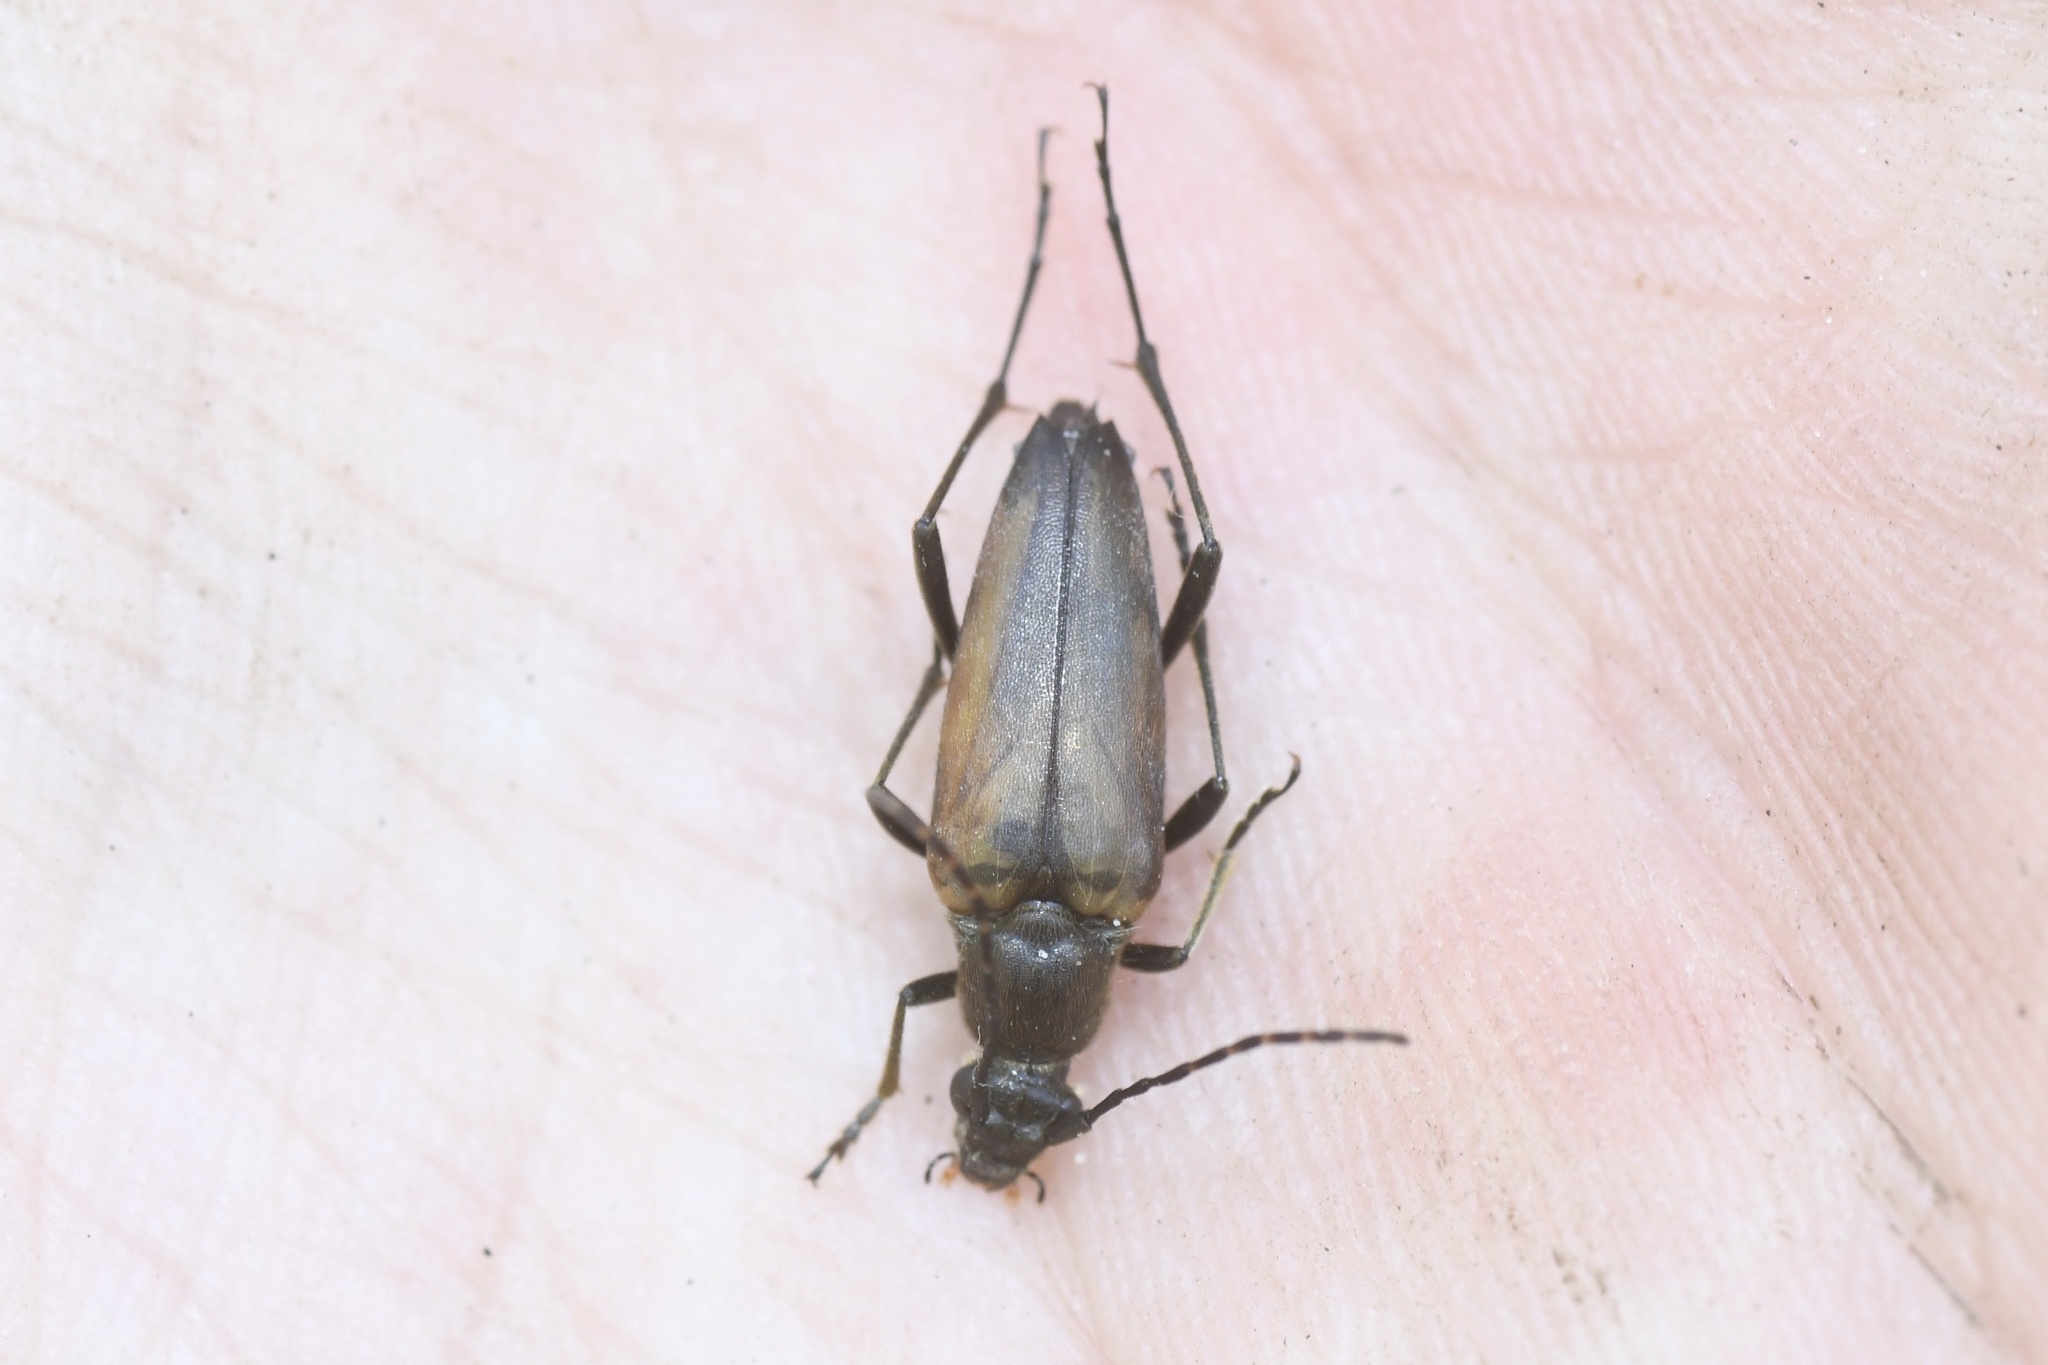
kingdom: Animalia
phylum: Arthropoda
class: Insecta
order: Coleoptera
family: Cerambycidae
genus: Etorofus
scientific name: Etorofus
